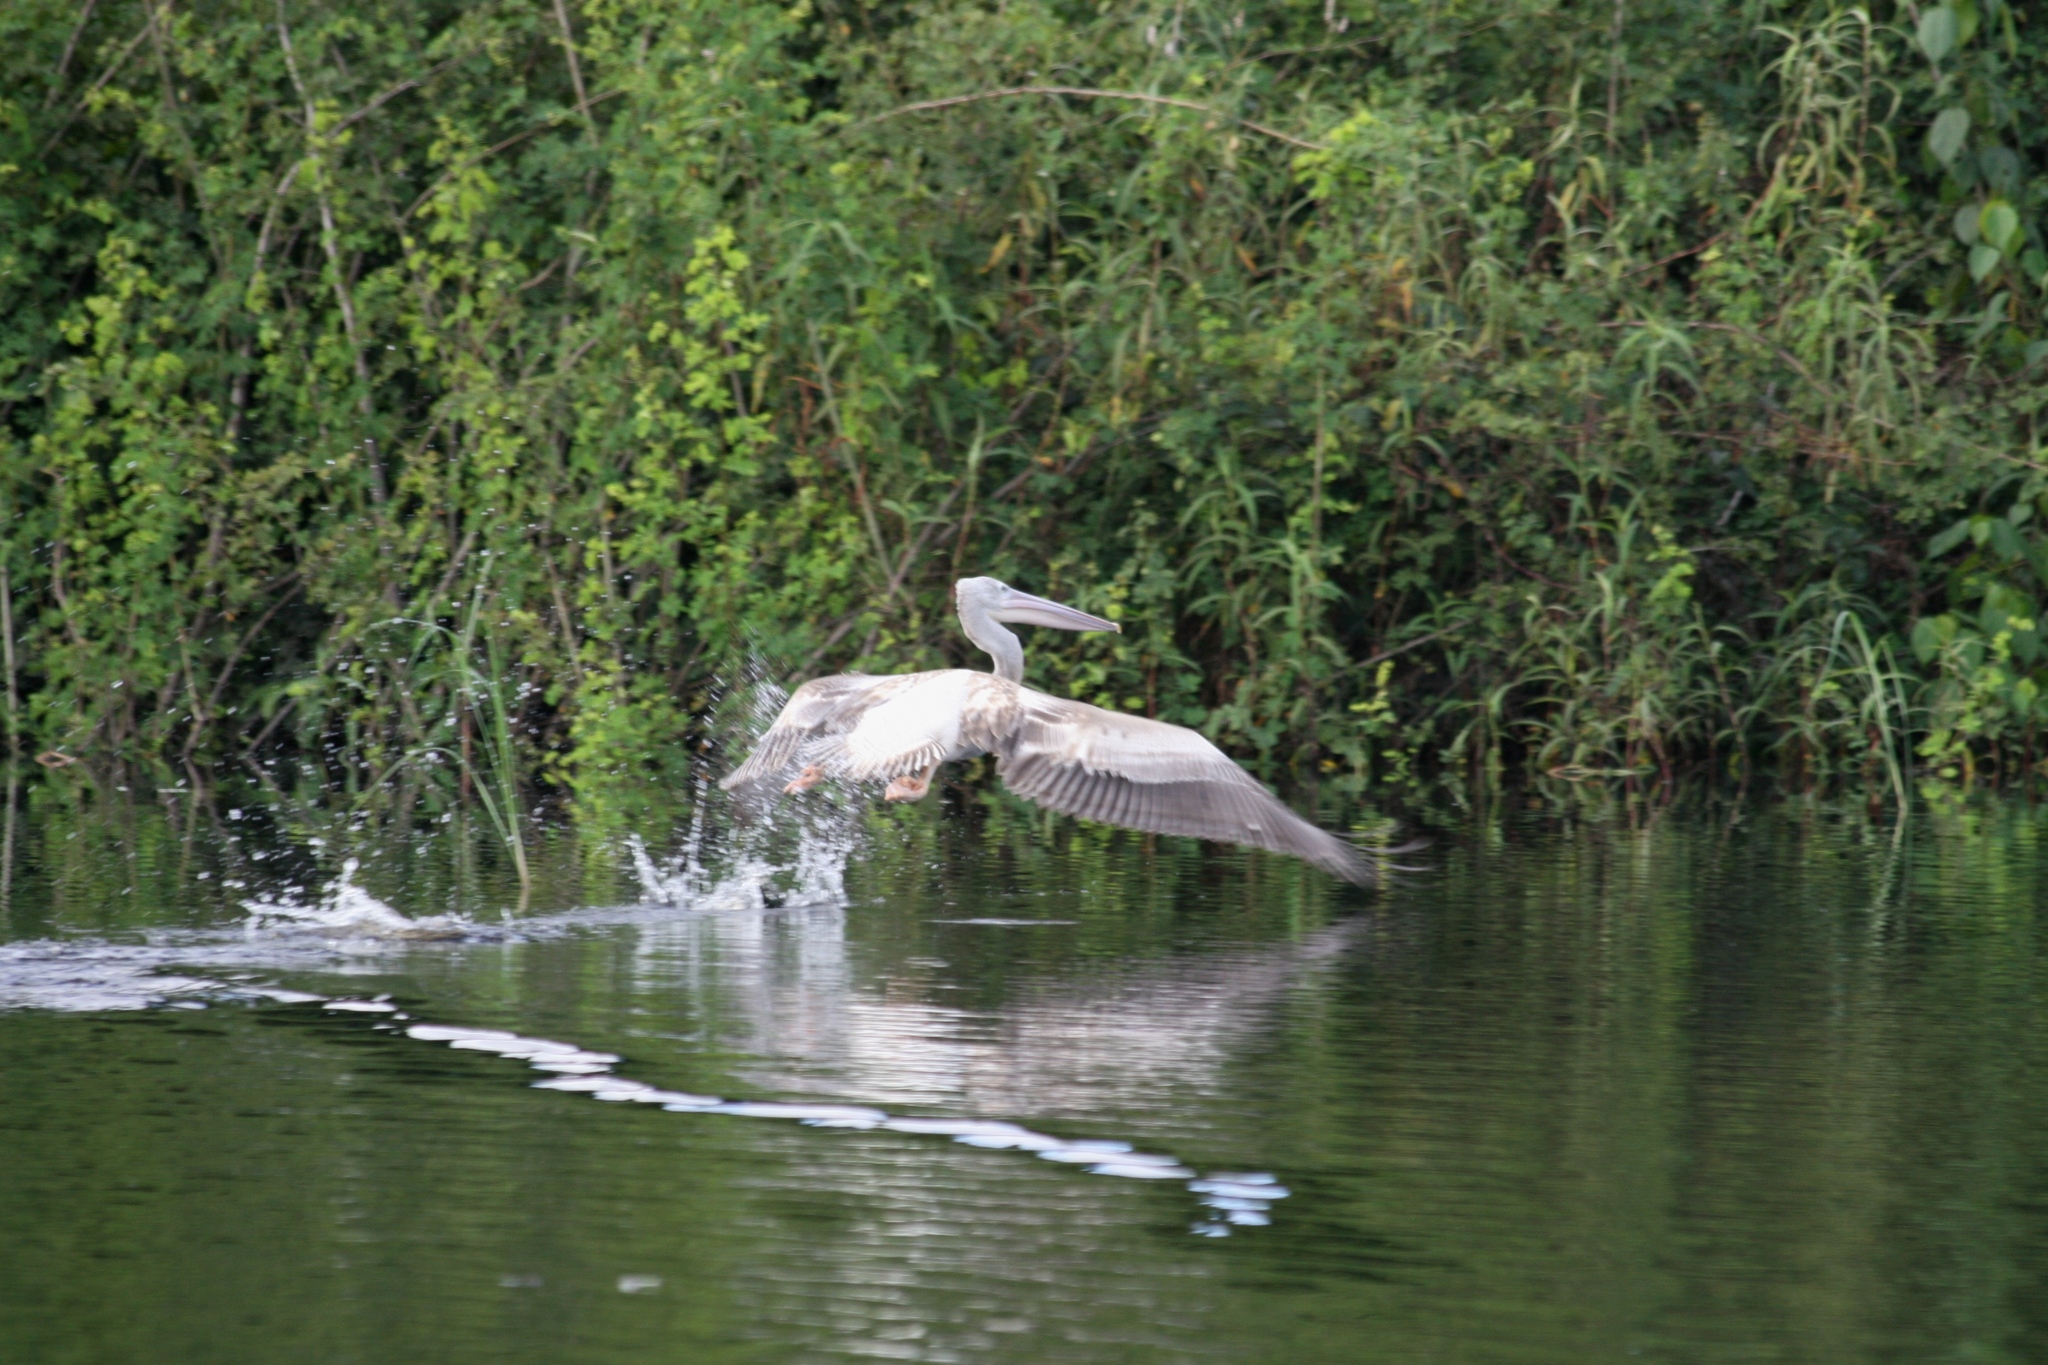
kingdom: Animalia
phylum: Chordata
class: Aves
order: Pelecaniformes
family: Pelecanidae
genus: Pelecanus
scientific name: Pelecanus rufescens
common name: Pink-backed pelican
